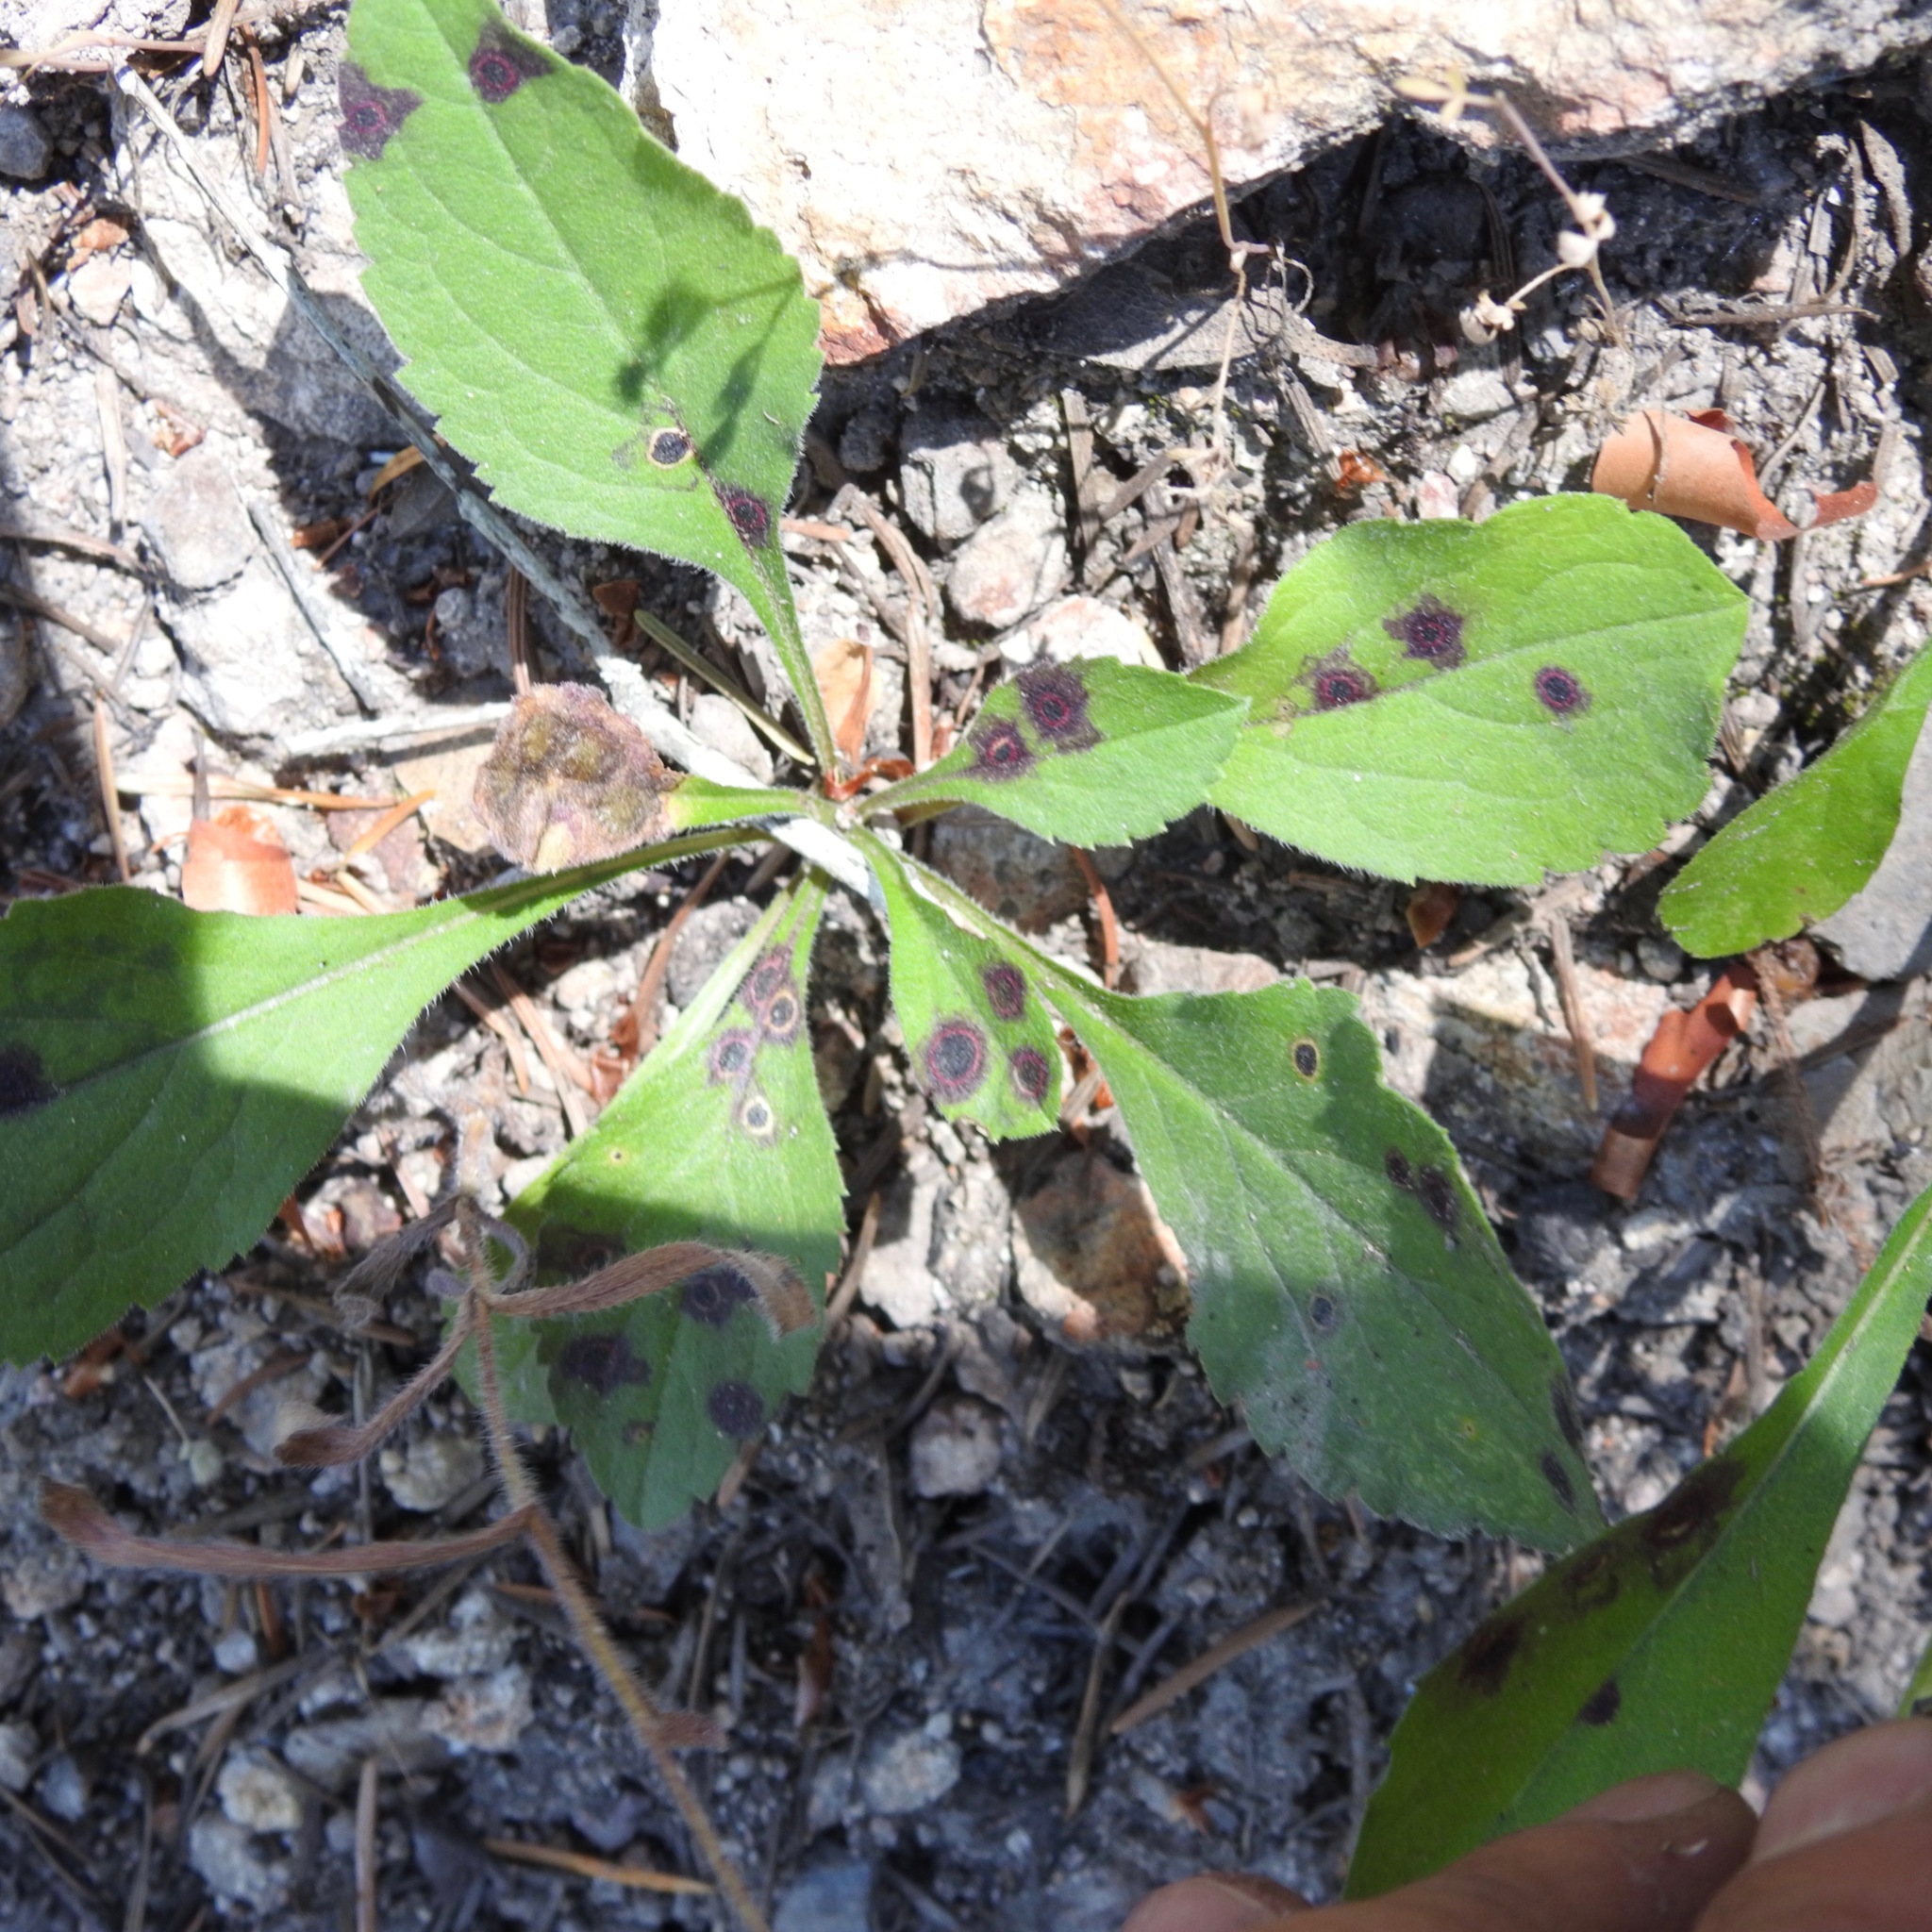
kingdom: Plantae
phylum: Tracheophyta
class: Magnoliopsida
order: Asterales
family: Asteraceae
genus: Eurybia
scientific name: Eurybia radulina
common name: Rough-leaved aster
